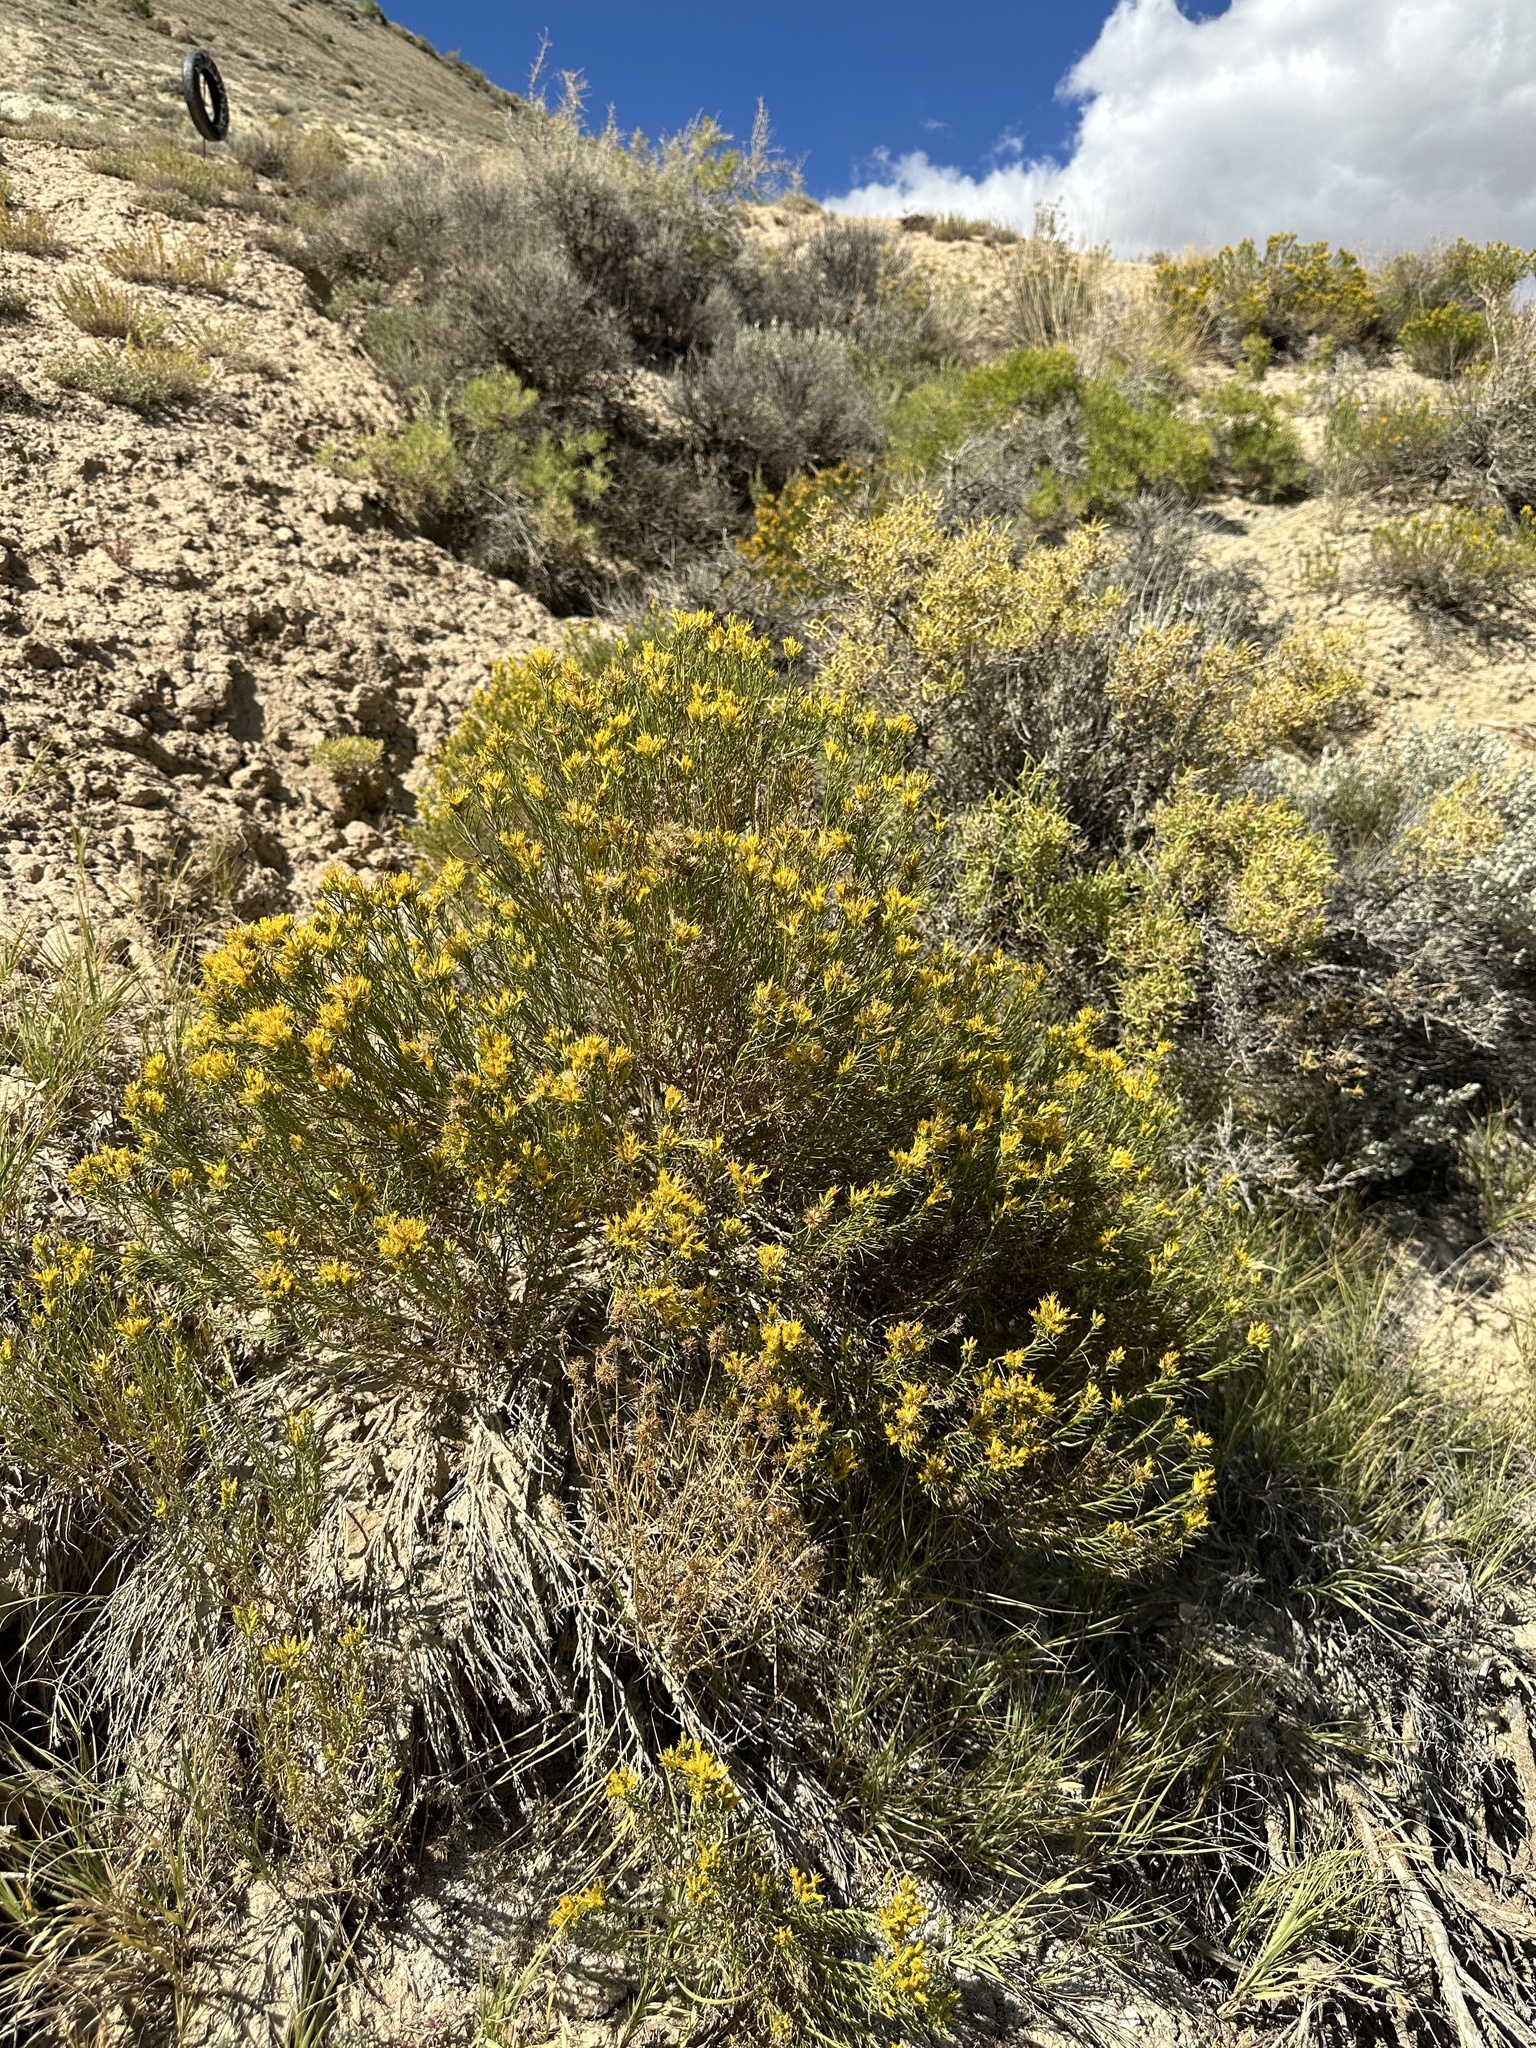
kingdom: Plantae
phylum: Tracheophyta
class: Magnoliopsida
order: Asterales
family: Asteraceae
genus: Ericameria
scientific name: Ericameria parryi
